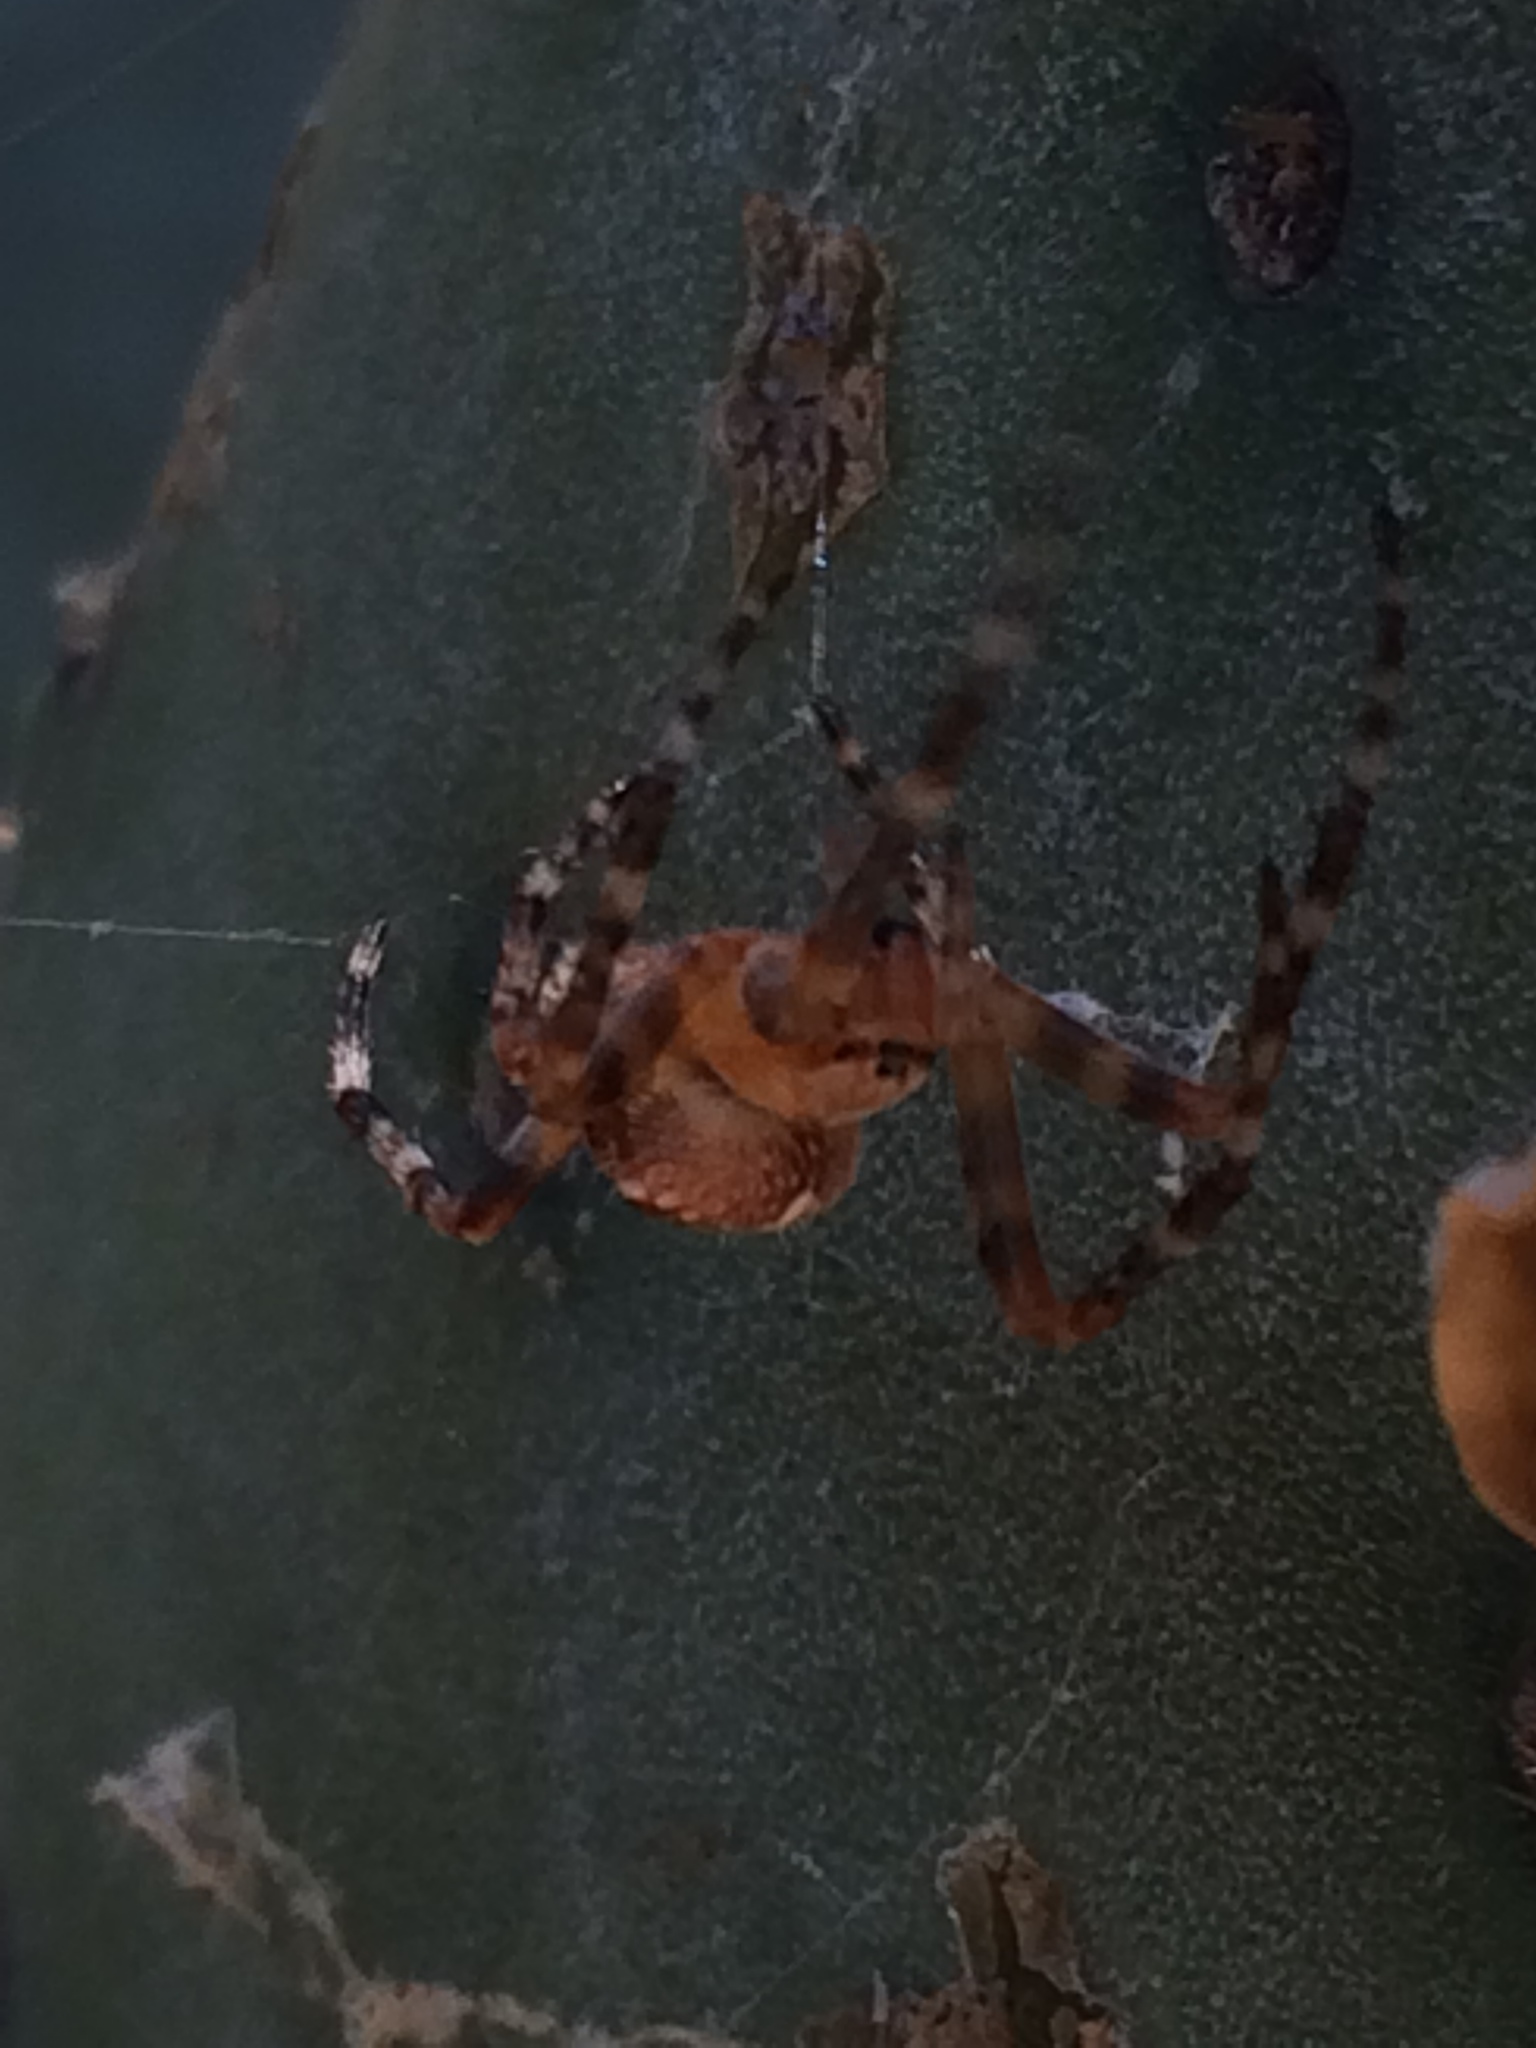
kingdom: Animalia
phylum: Arthropoda
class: Arachnida
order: Araneae
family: Araneidae
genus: Araneus
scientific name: Araneus diadematus
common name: Cross orbweaver
